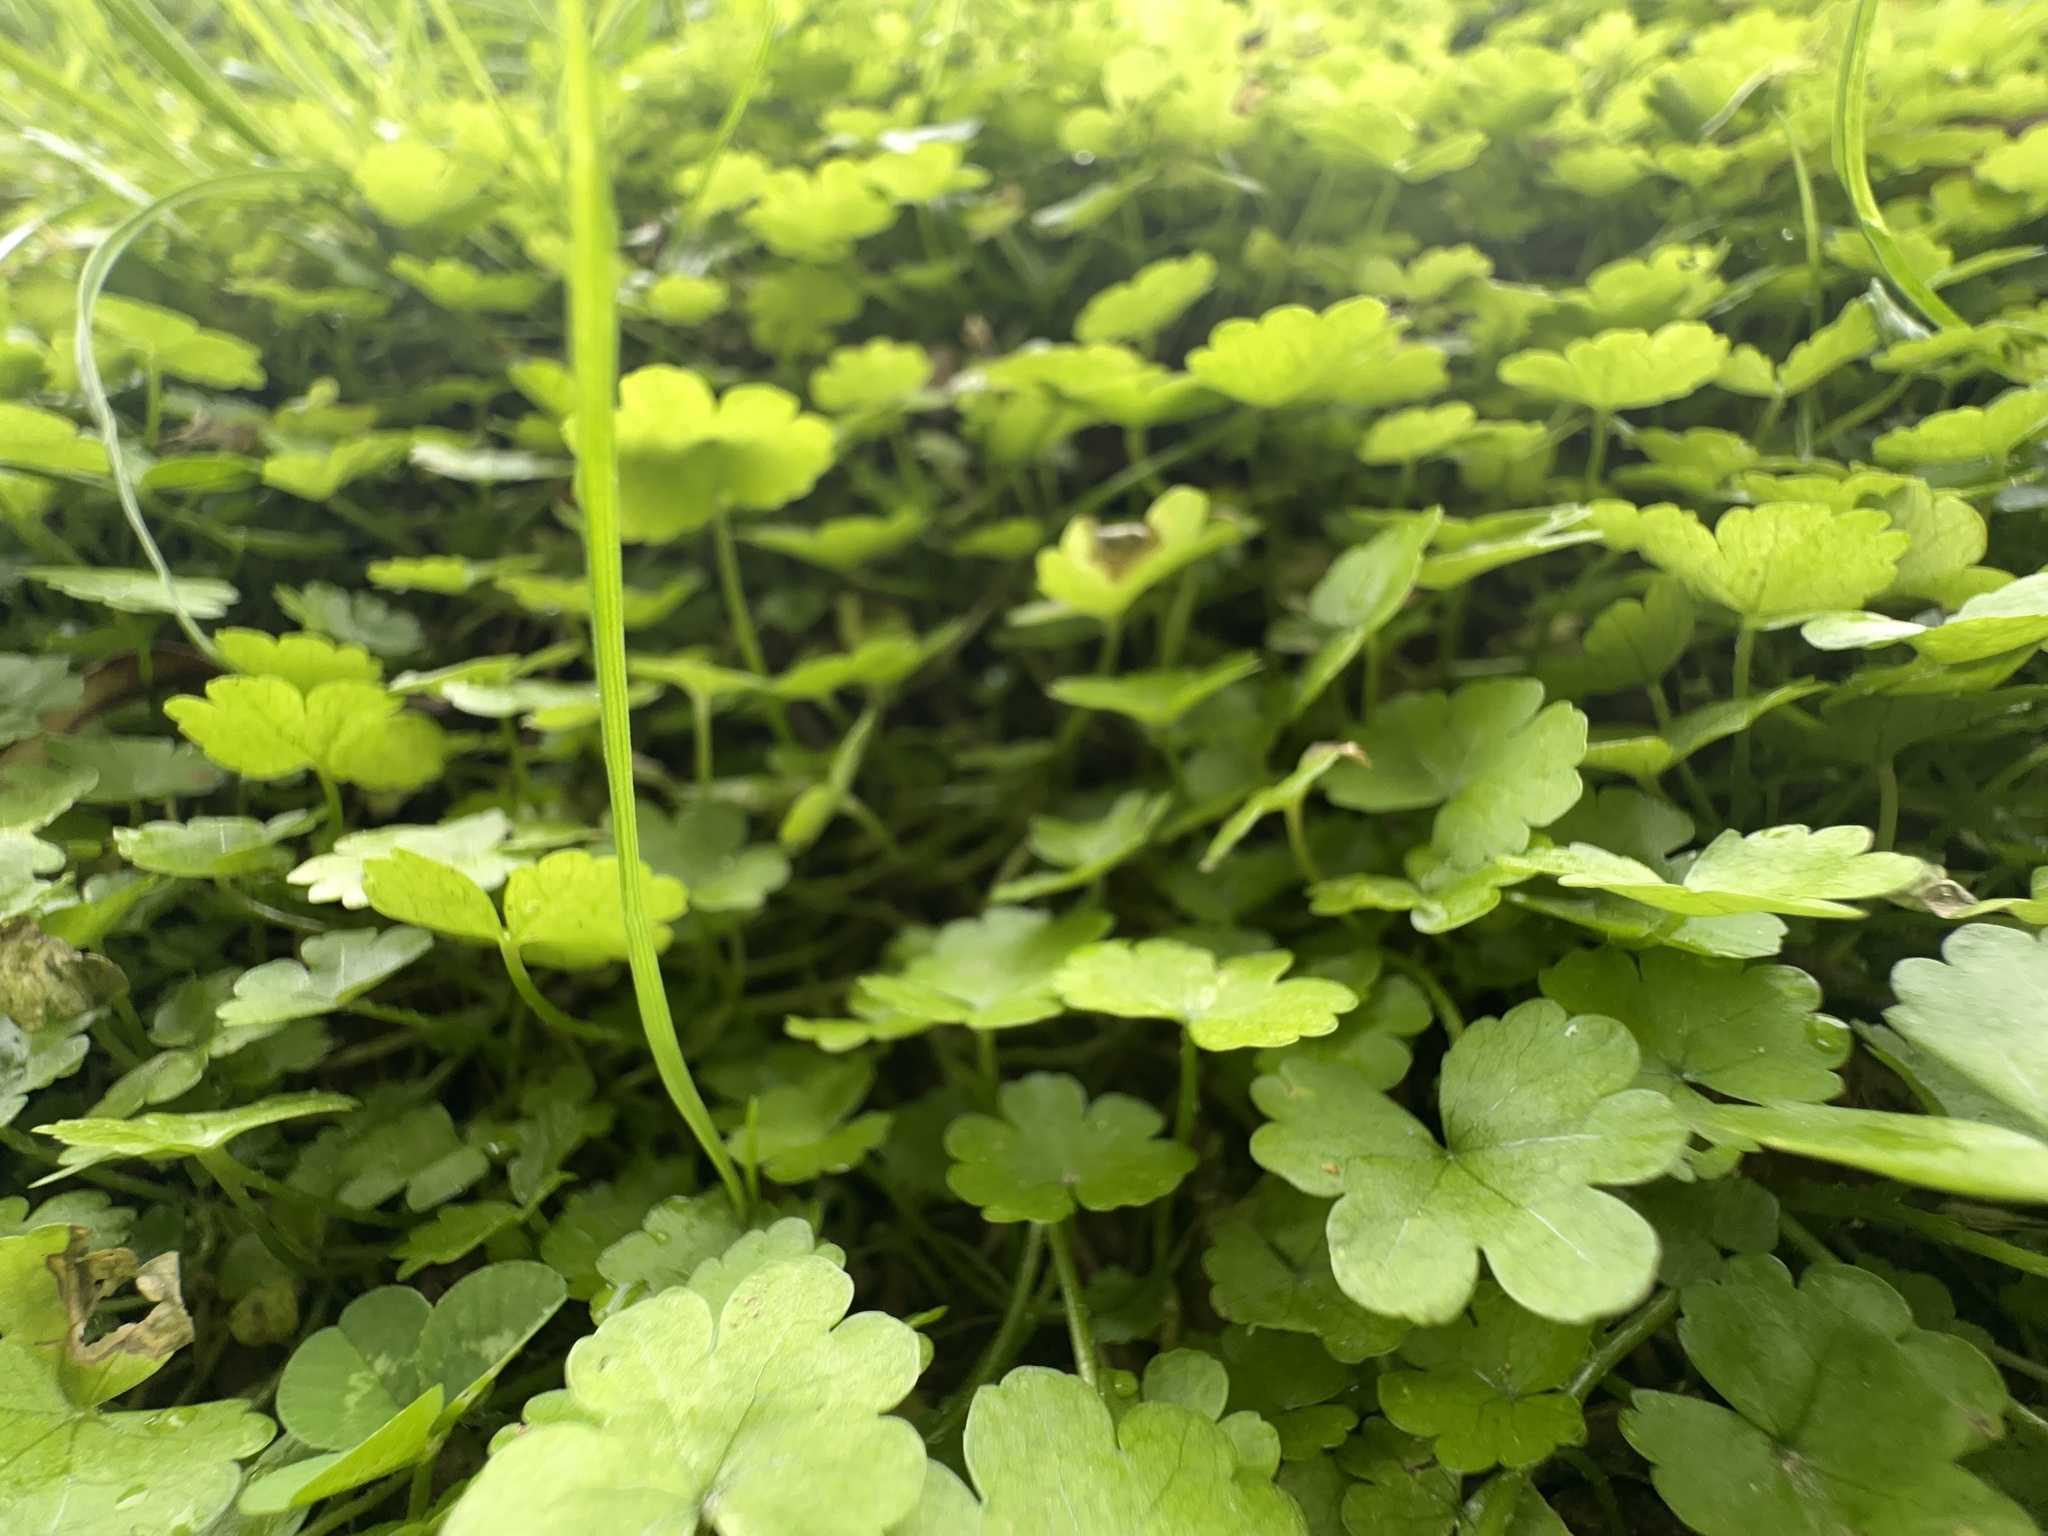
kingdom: Plantae
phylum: Tracheophyta
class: Magnoliopsida
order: Apiales
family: Araliaceae
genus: Hydrocotyle
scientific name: Hydrocotyle heteromeria
